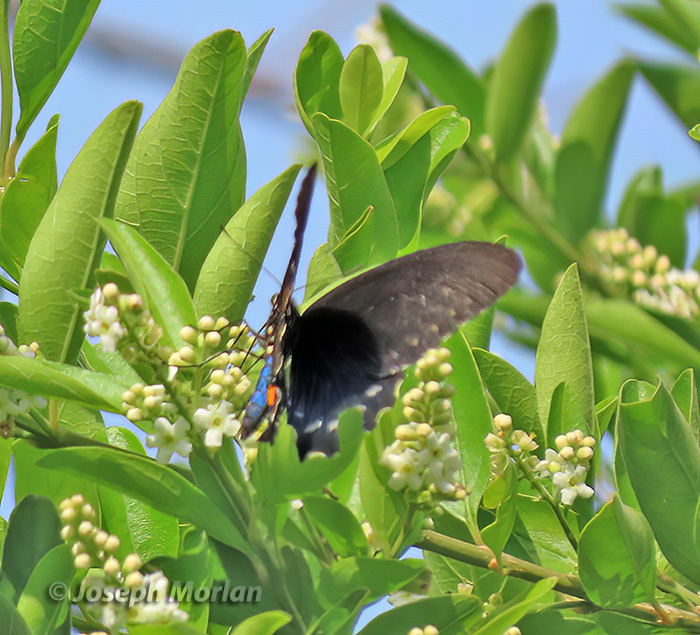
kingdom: Animalia
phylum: Arthropoda
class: Insecta
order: Lepidoptera
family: Papilionidae
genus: Battus
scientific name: Battus philenor
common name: Pipevine swallowtail
